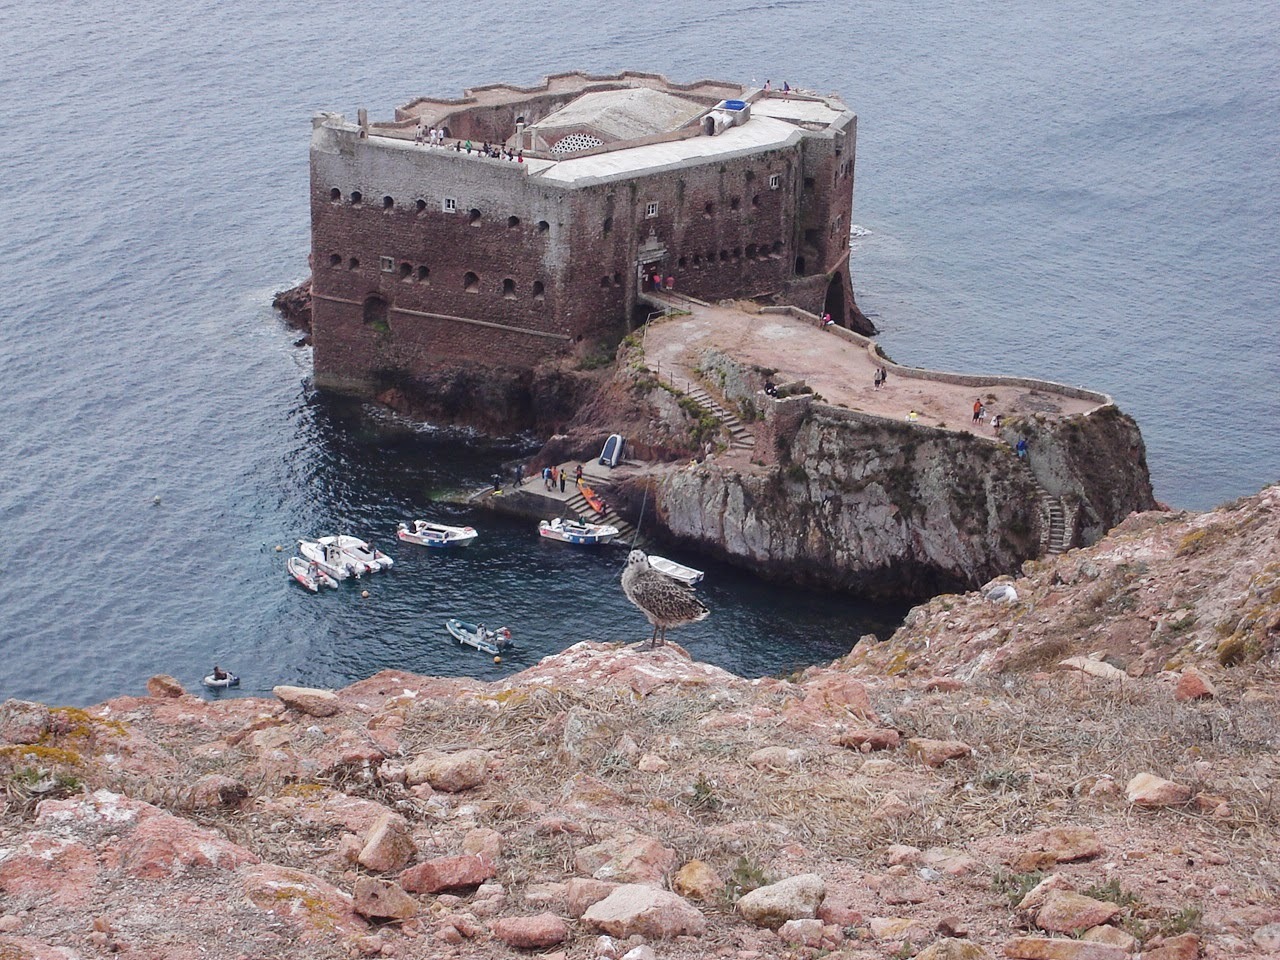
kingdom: Animalia
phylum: Chordata
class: Aves
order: Charadriiformes
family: Laridae
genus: Larus
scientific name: Larus michahellis
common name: Yellow-legged gull
